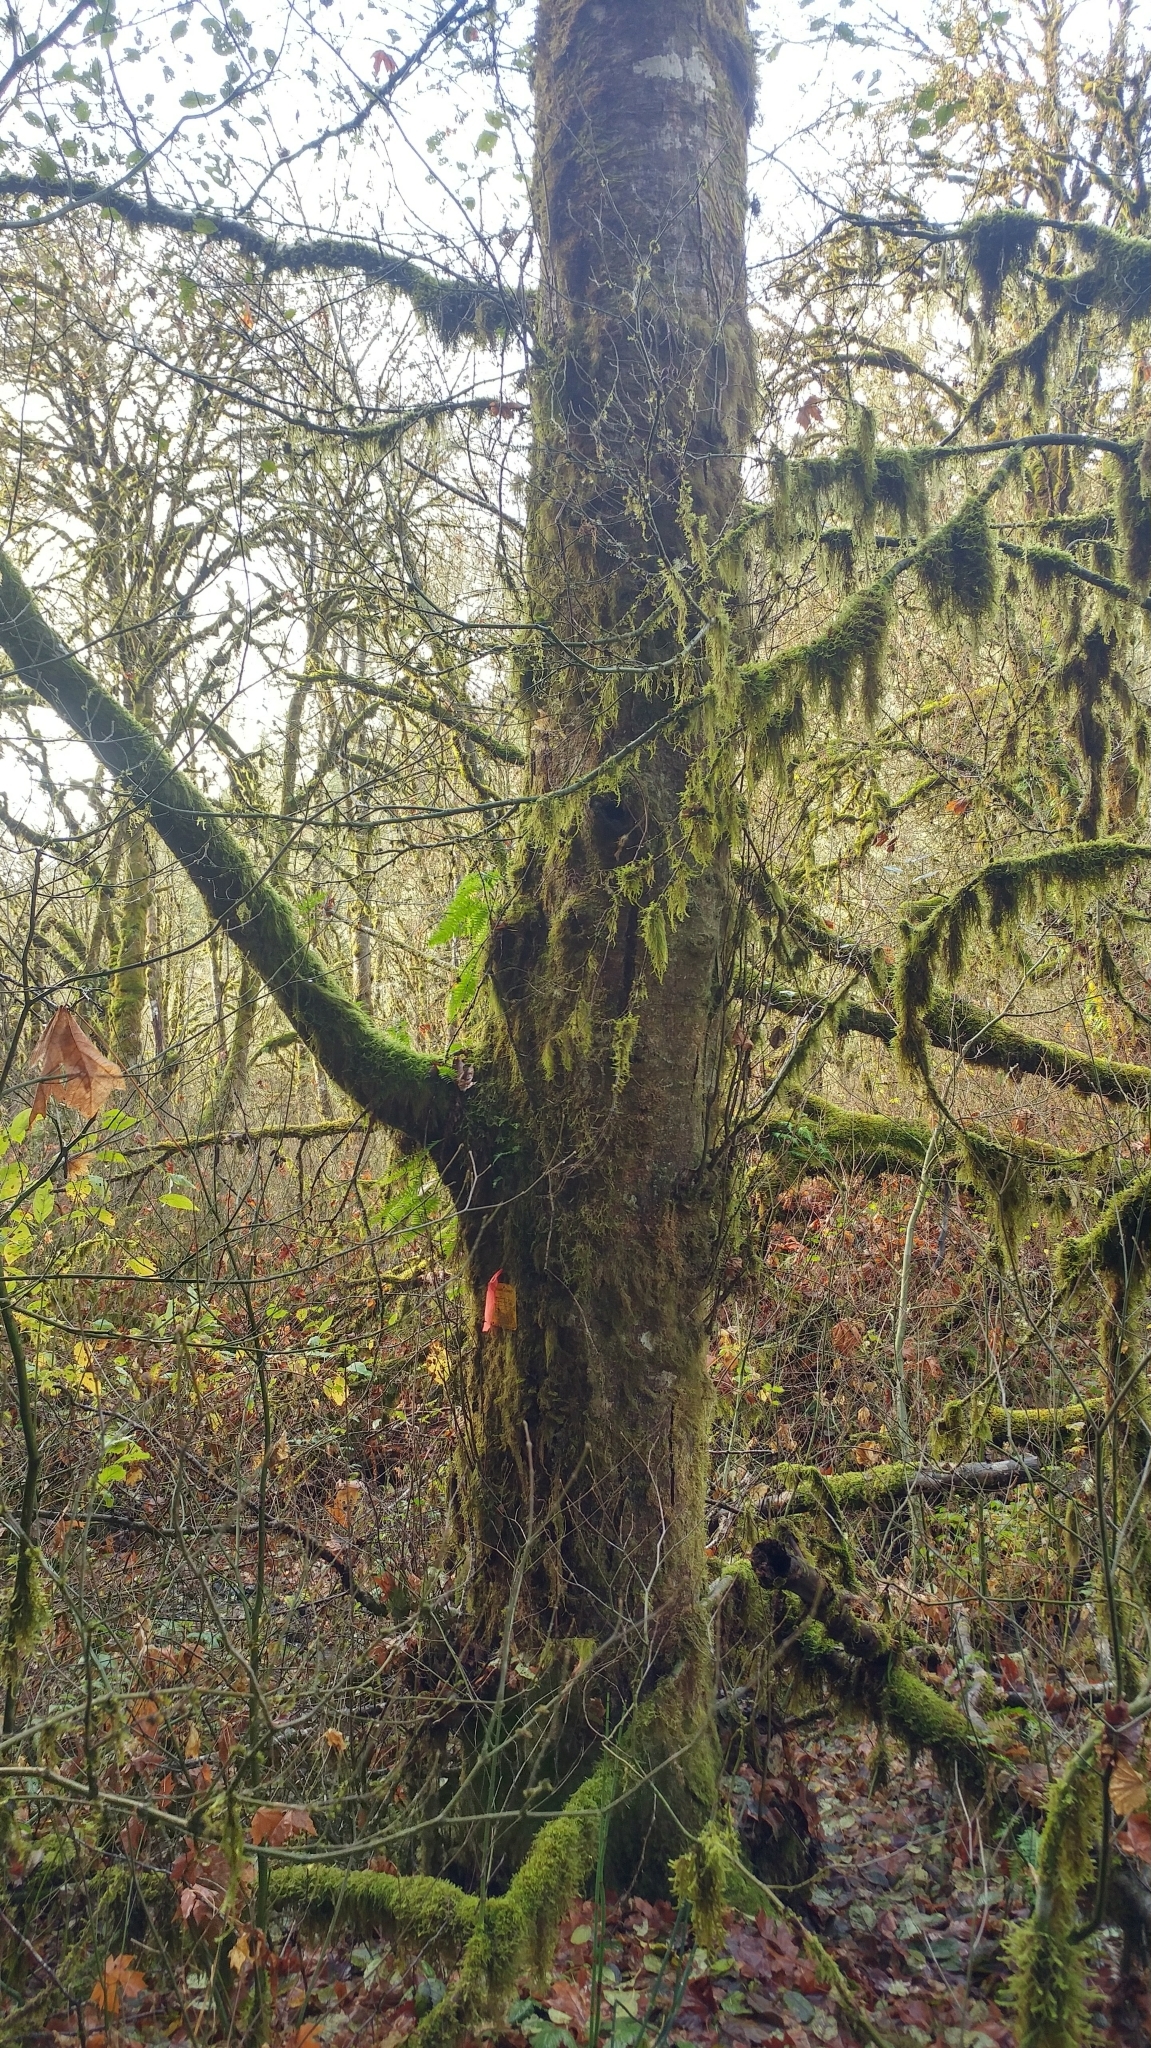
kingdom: Plantae
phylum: Tracheophyta
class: Magnoliopsida
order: Fagales
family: Betulaceae
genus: Alnus
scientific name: Alnus rubra
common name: Red alder
